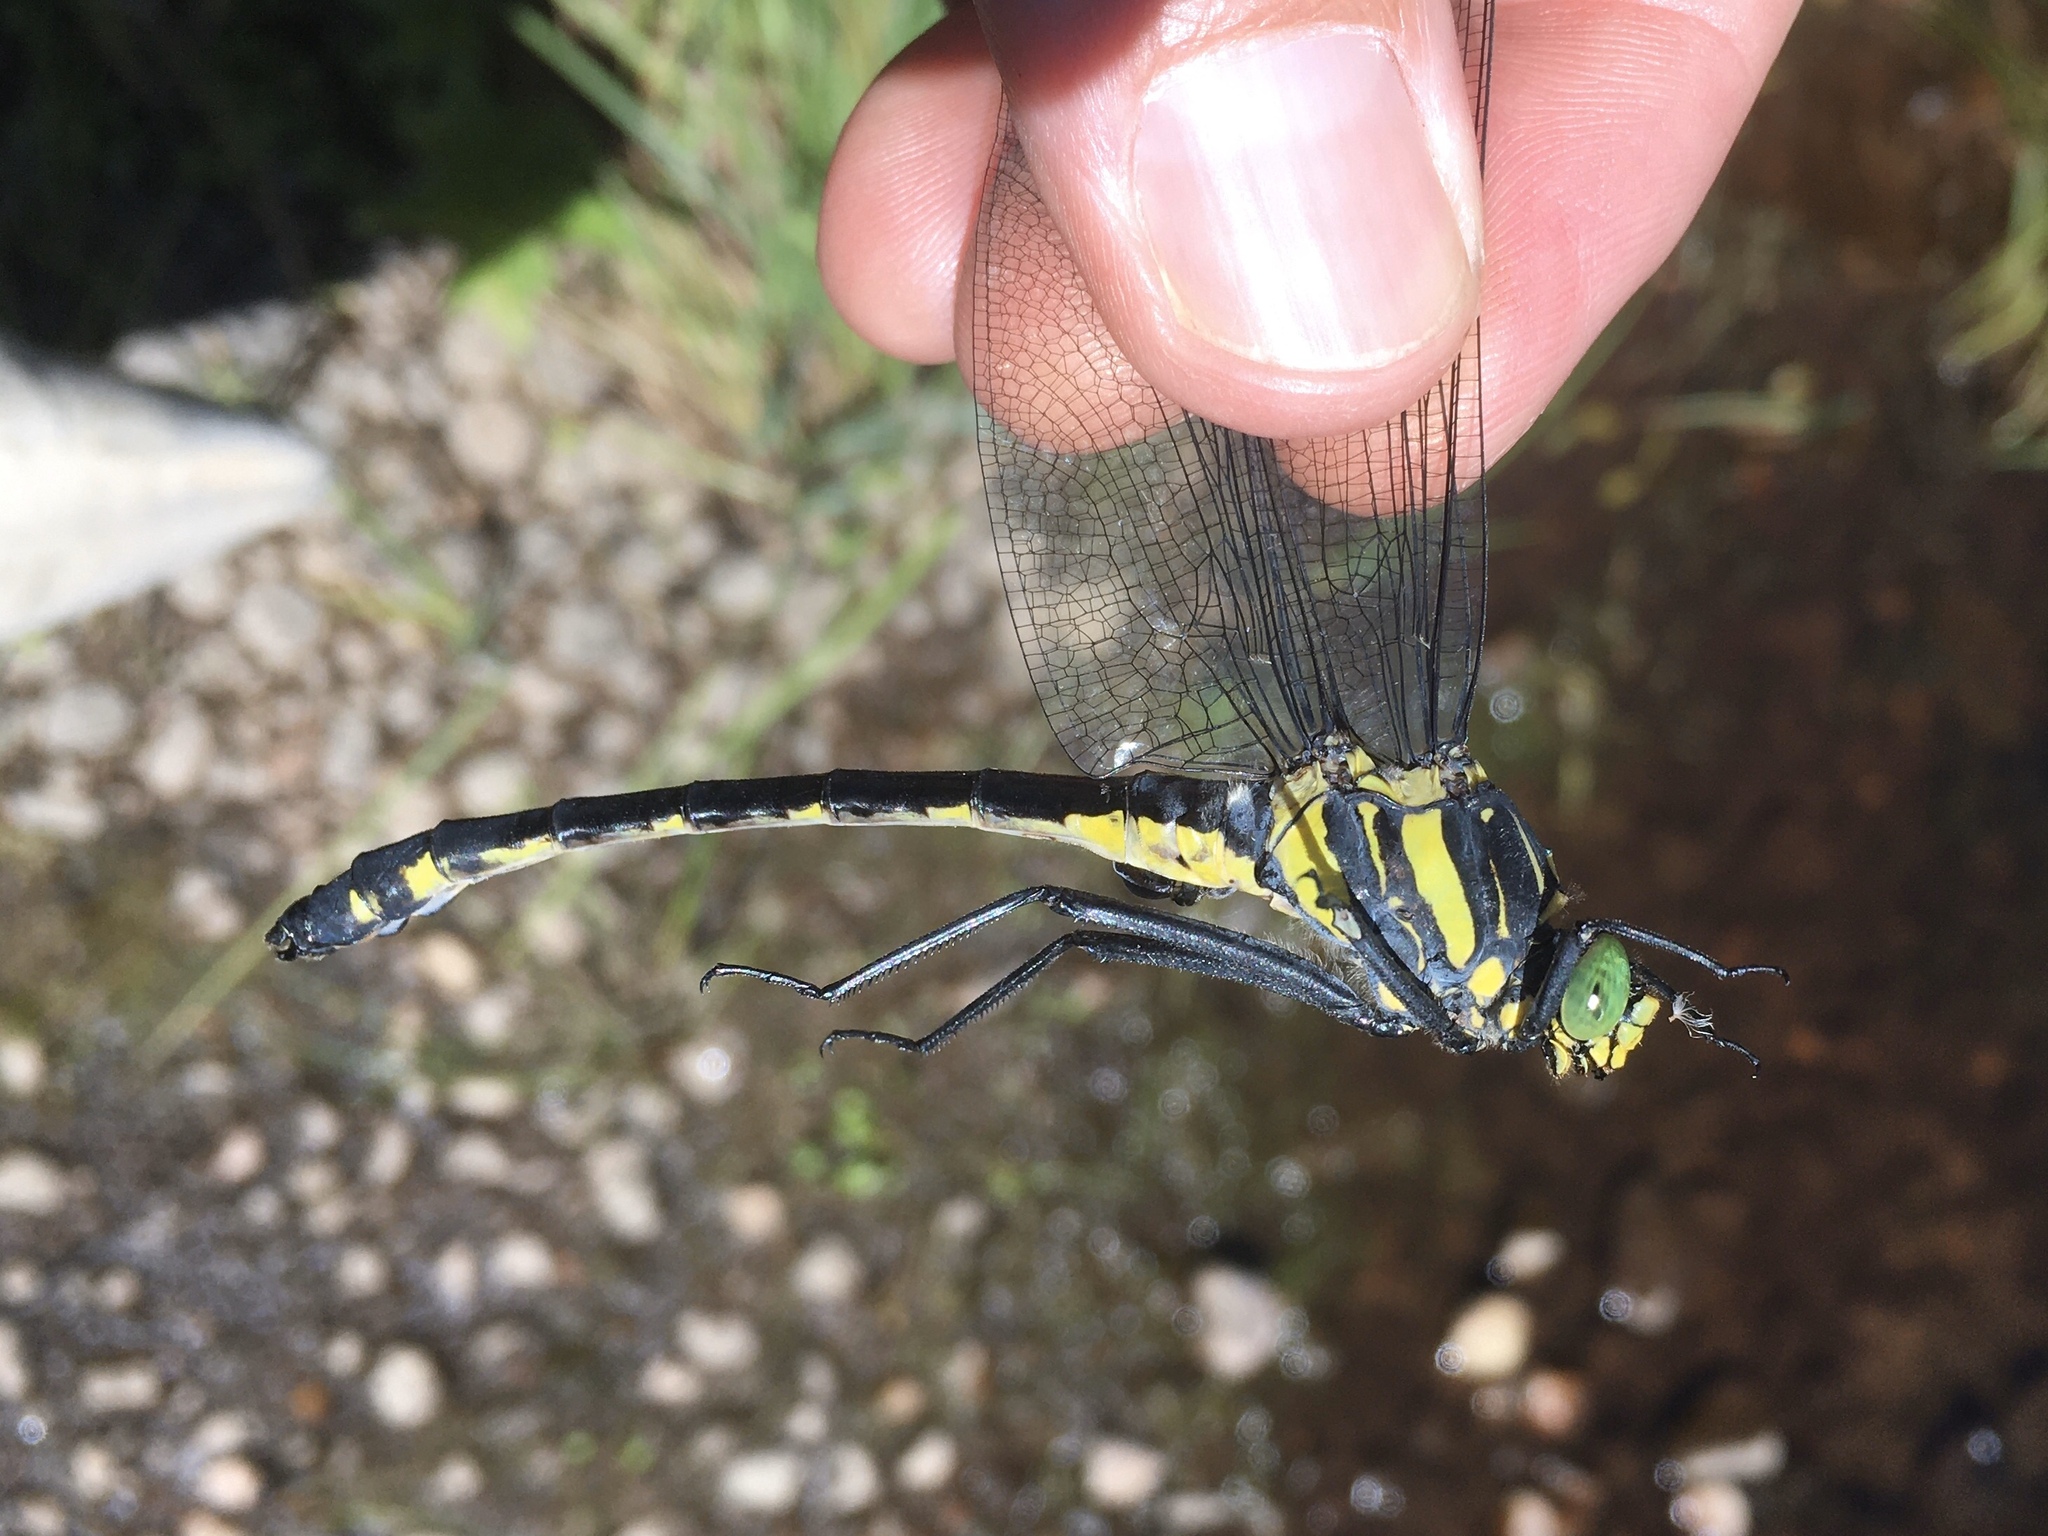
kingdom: Animalia
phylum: Arthropoda
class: Insecta
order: Odonata
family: Gomphidae
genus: Hagenius
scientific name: Hagenius brevistylus
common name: Dragonhunter
